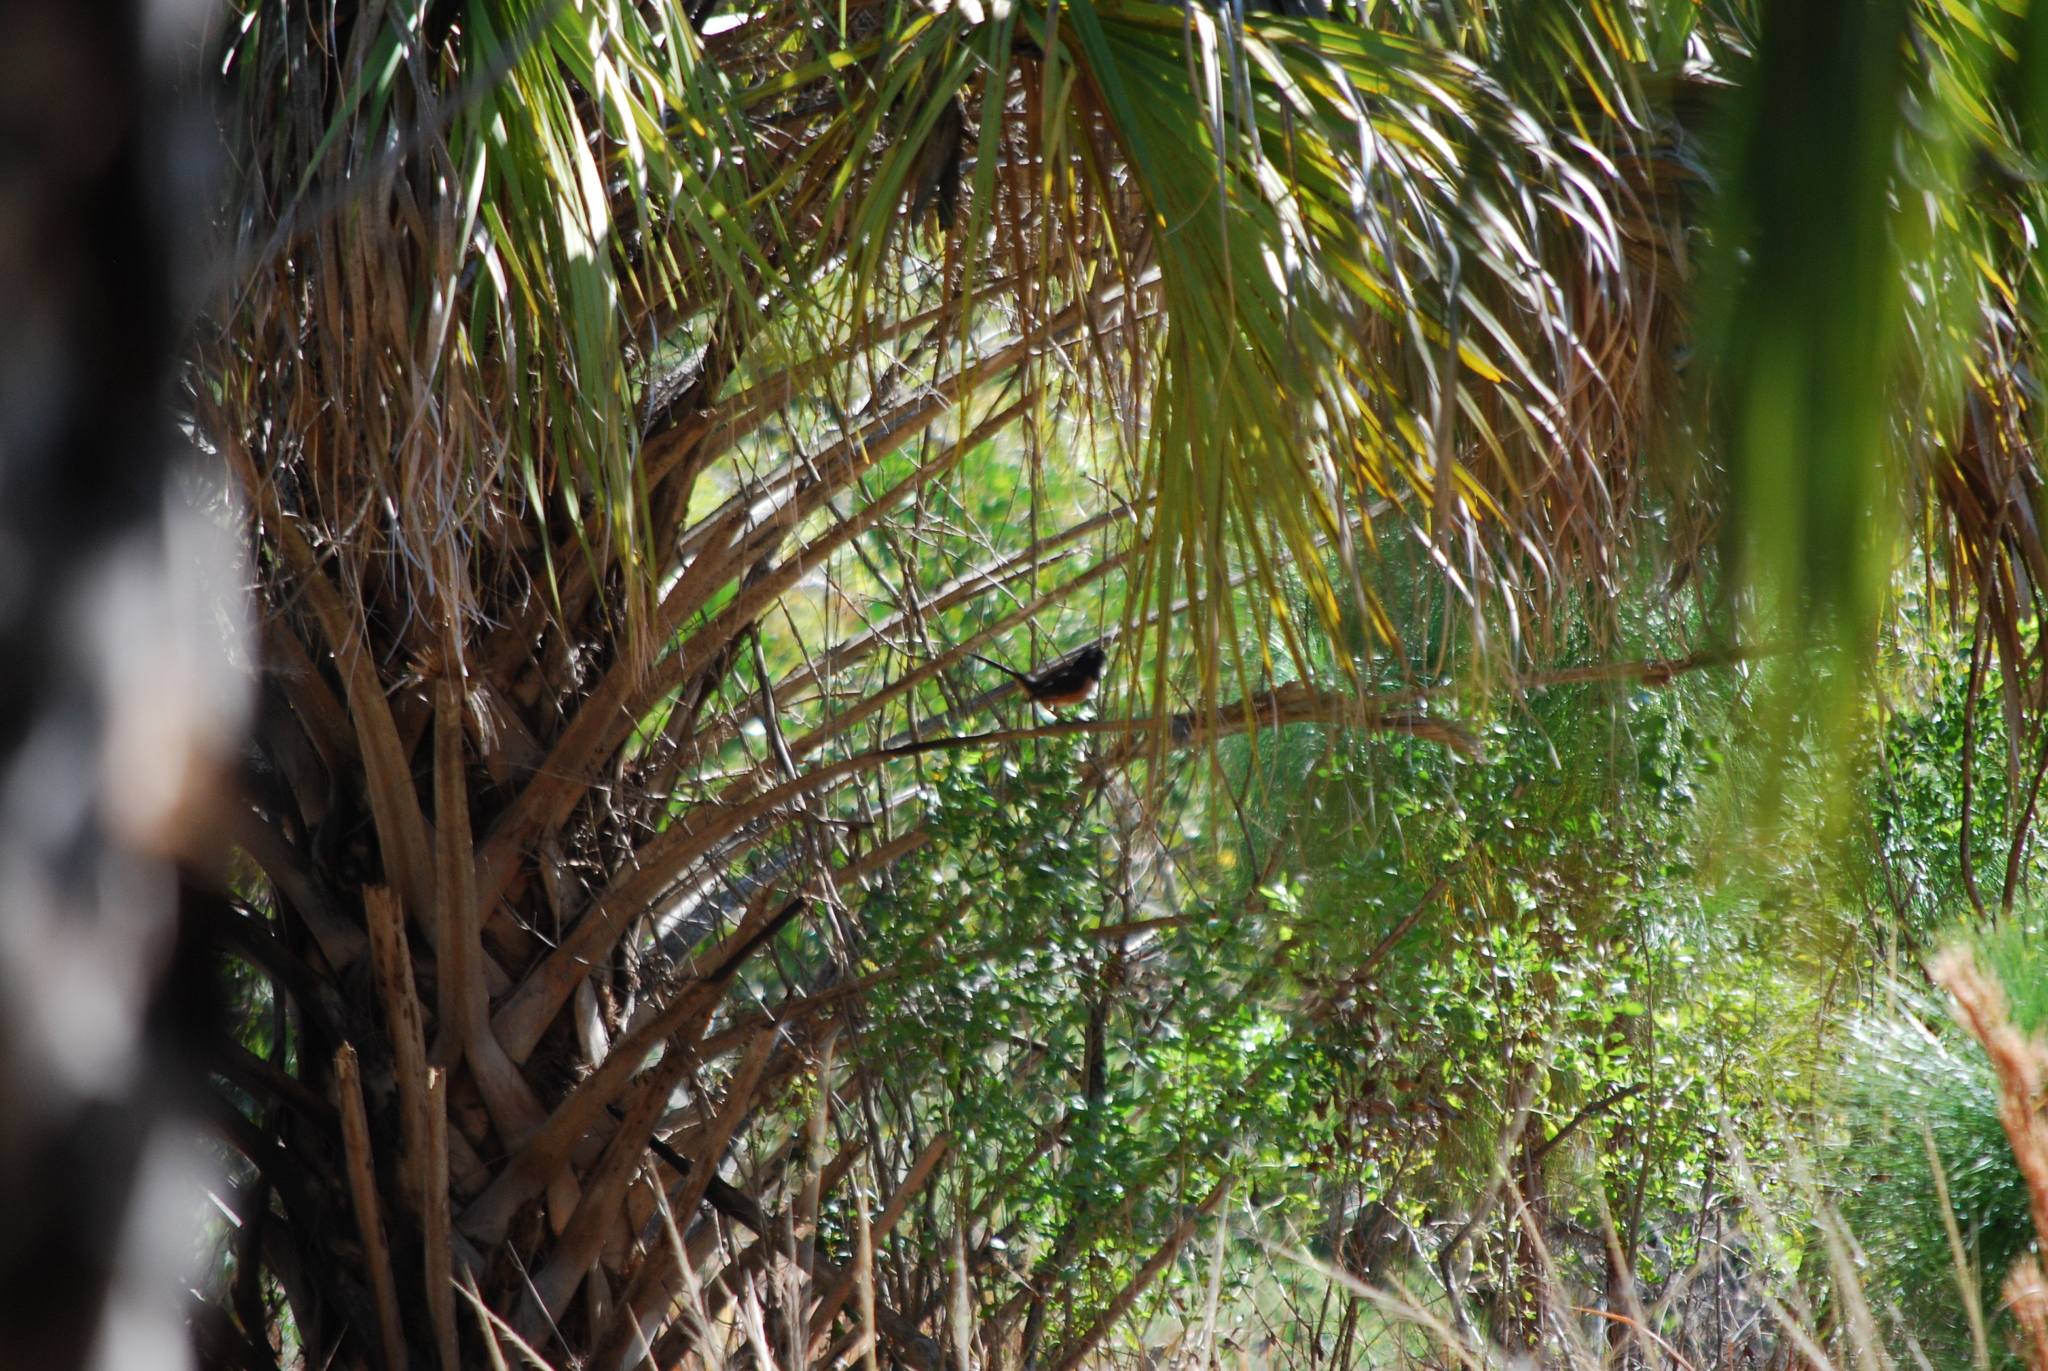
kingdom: Animalia
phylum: Chordata
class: Aves
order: Passeriformes
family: Passerellidae
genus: Pipilo
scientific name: Pipilo erythrophthalmus
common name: Eastern towhee
